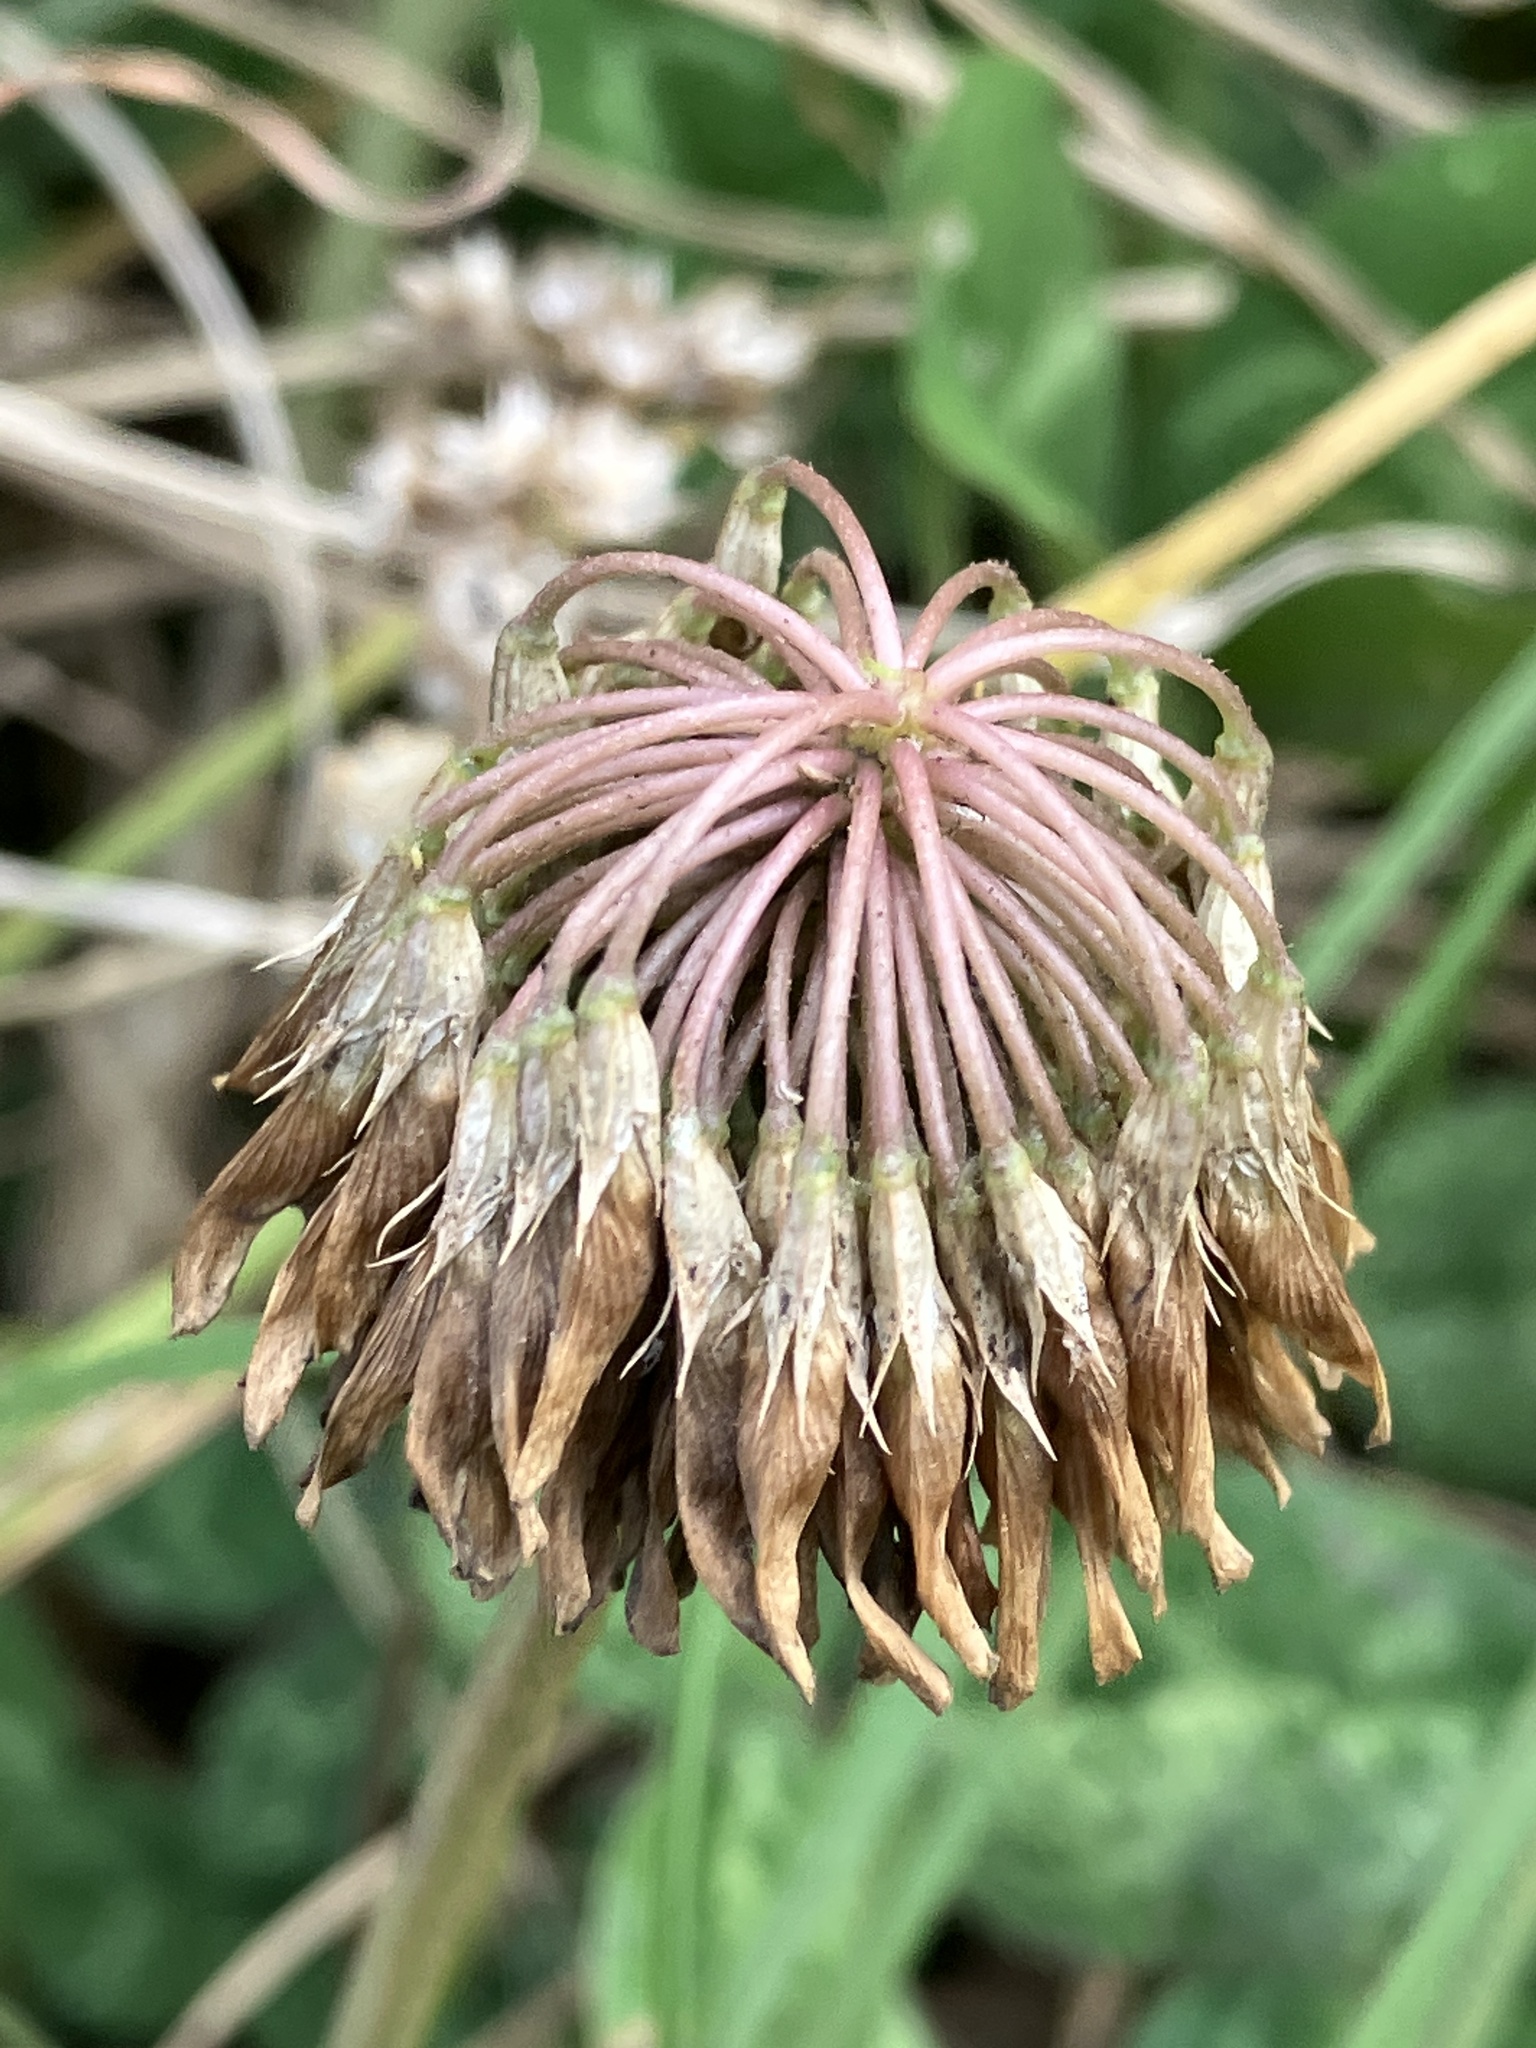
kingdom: Plantae
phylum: Tracheophyta
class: Magnoliopsida
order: Fabales
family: Fabaceae
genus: Trifolium
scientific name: Trifolium repens
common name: White clover
